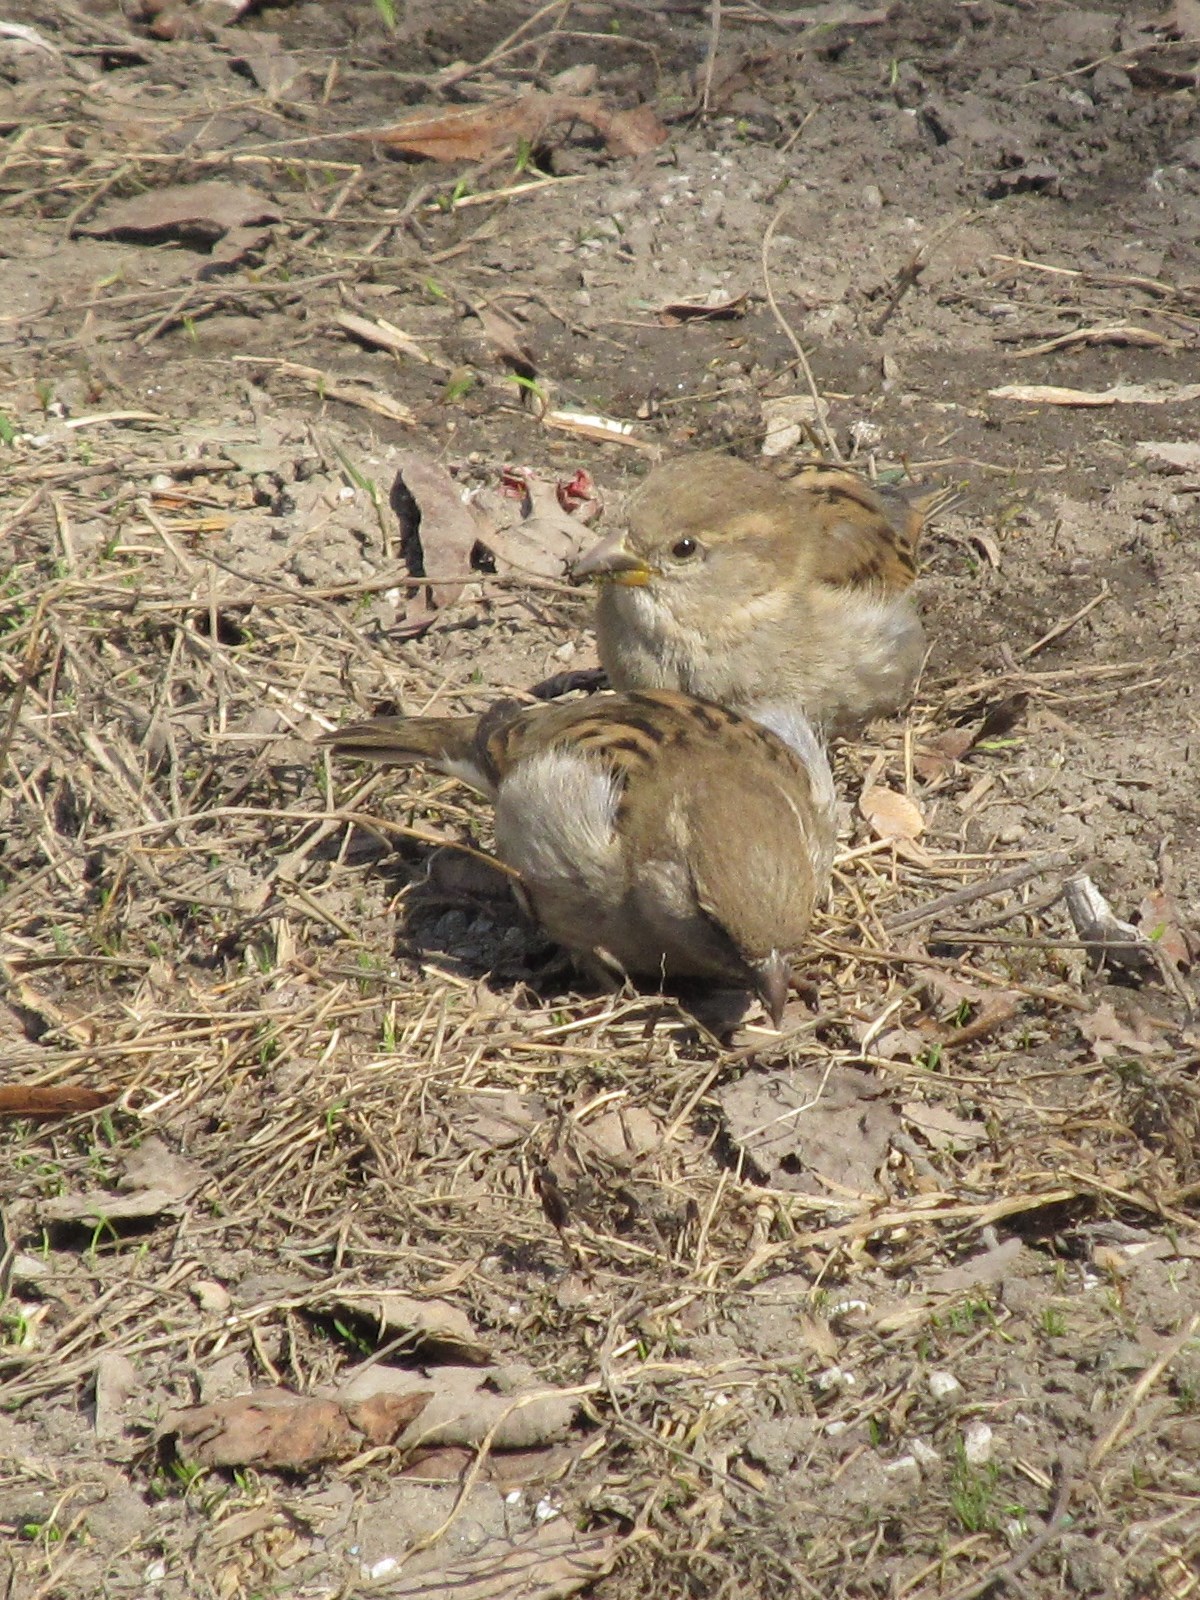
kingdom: Animalia
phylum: Chordata
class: Aves
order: Passeriformes
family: Passeridae
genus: Passer
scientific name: Passer domesticus
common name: House sparrow
